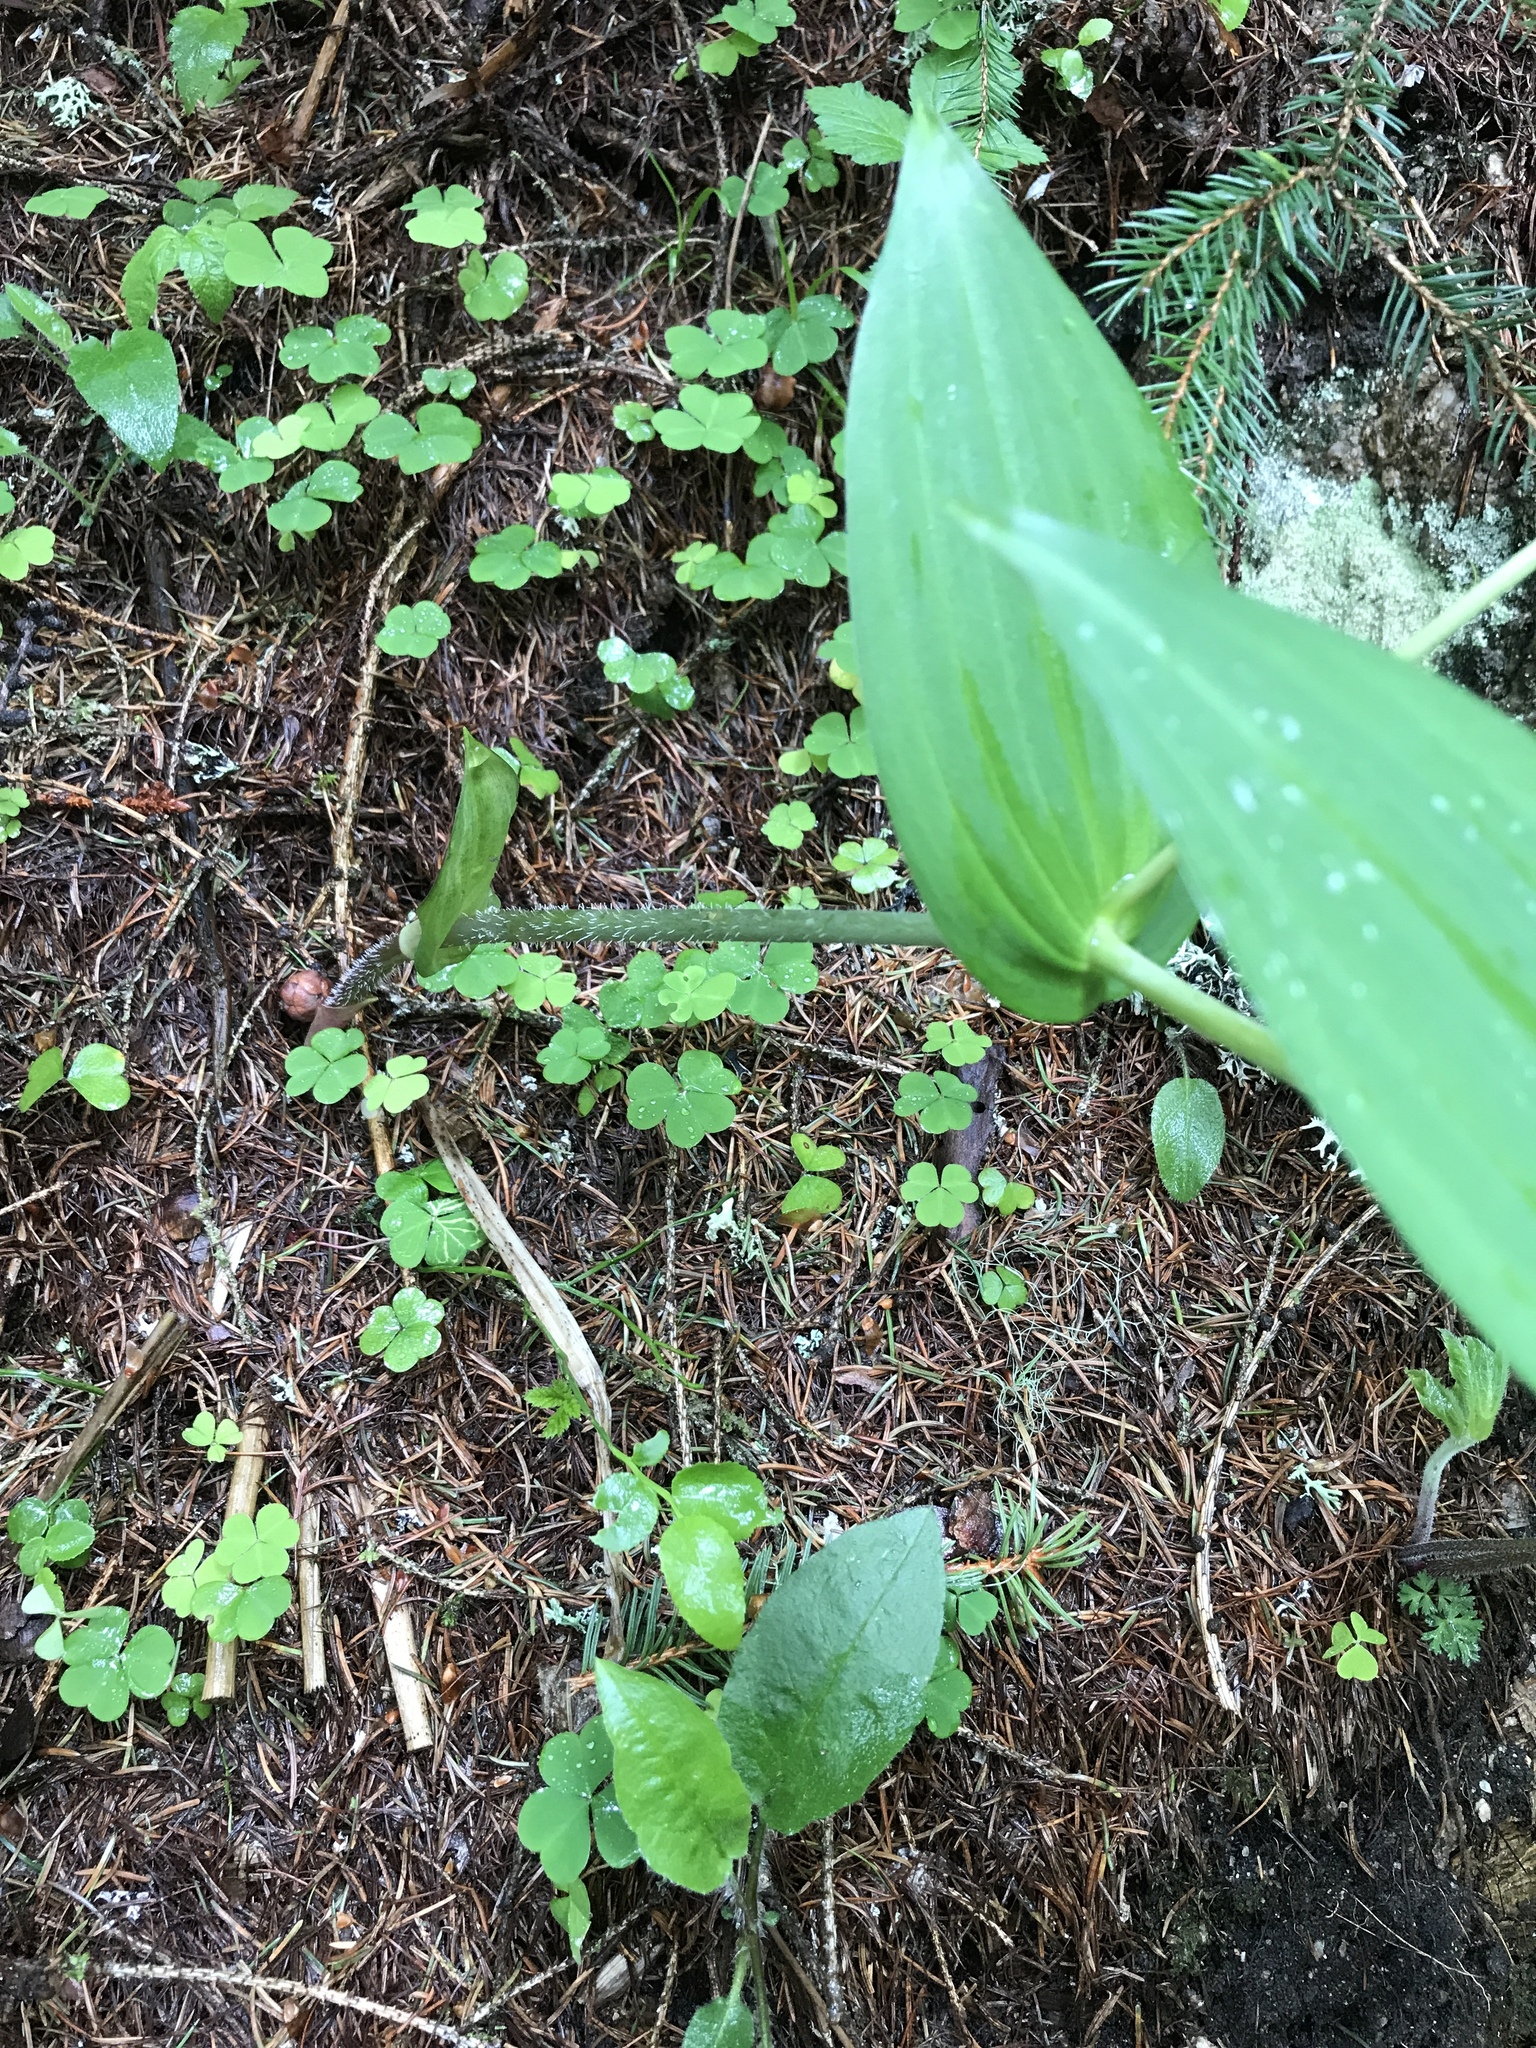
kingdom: Plantae
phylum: Tracheophyta
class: Liliopsida
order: Liliales
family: Liliaceae
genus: Streptopus
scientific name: Streptopus amplexifolius
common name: Clasp twisted stalk
